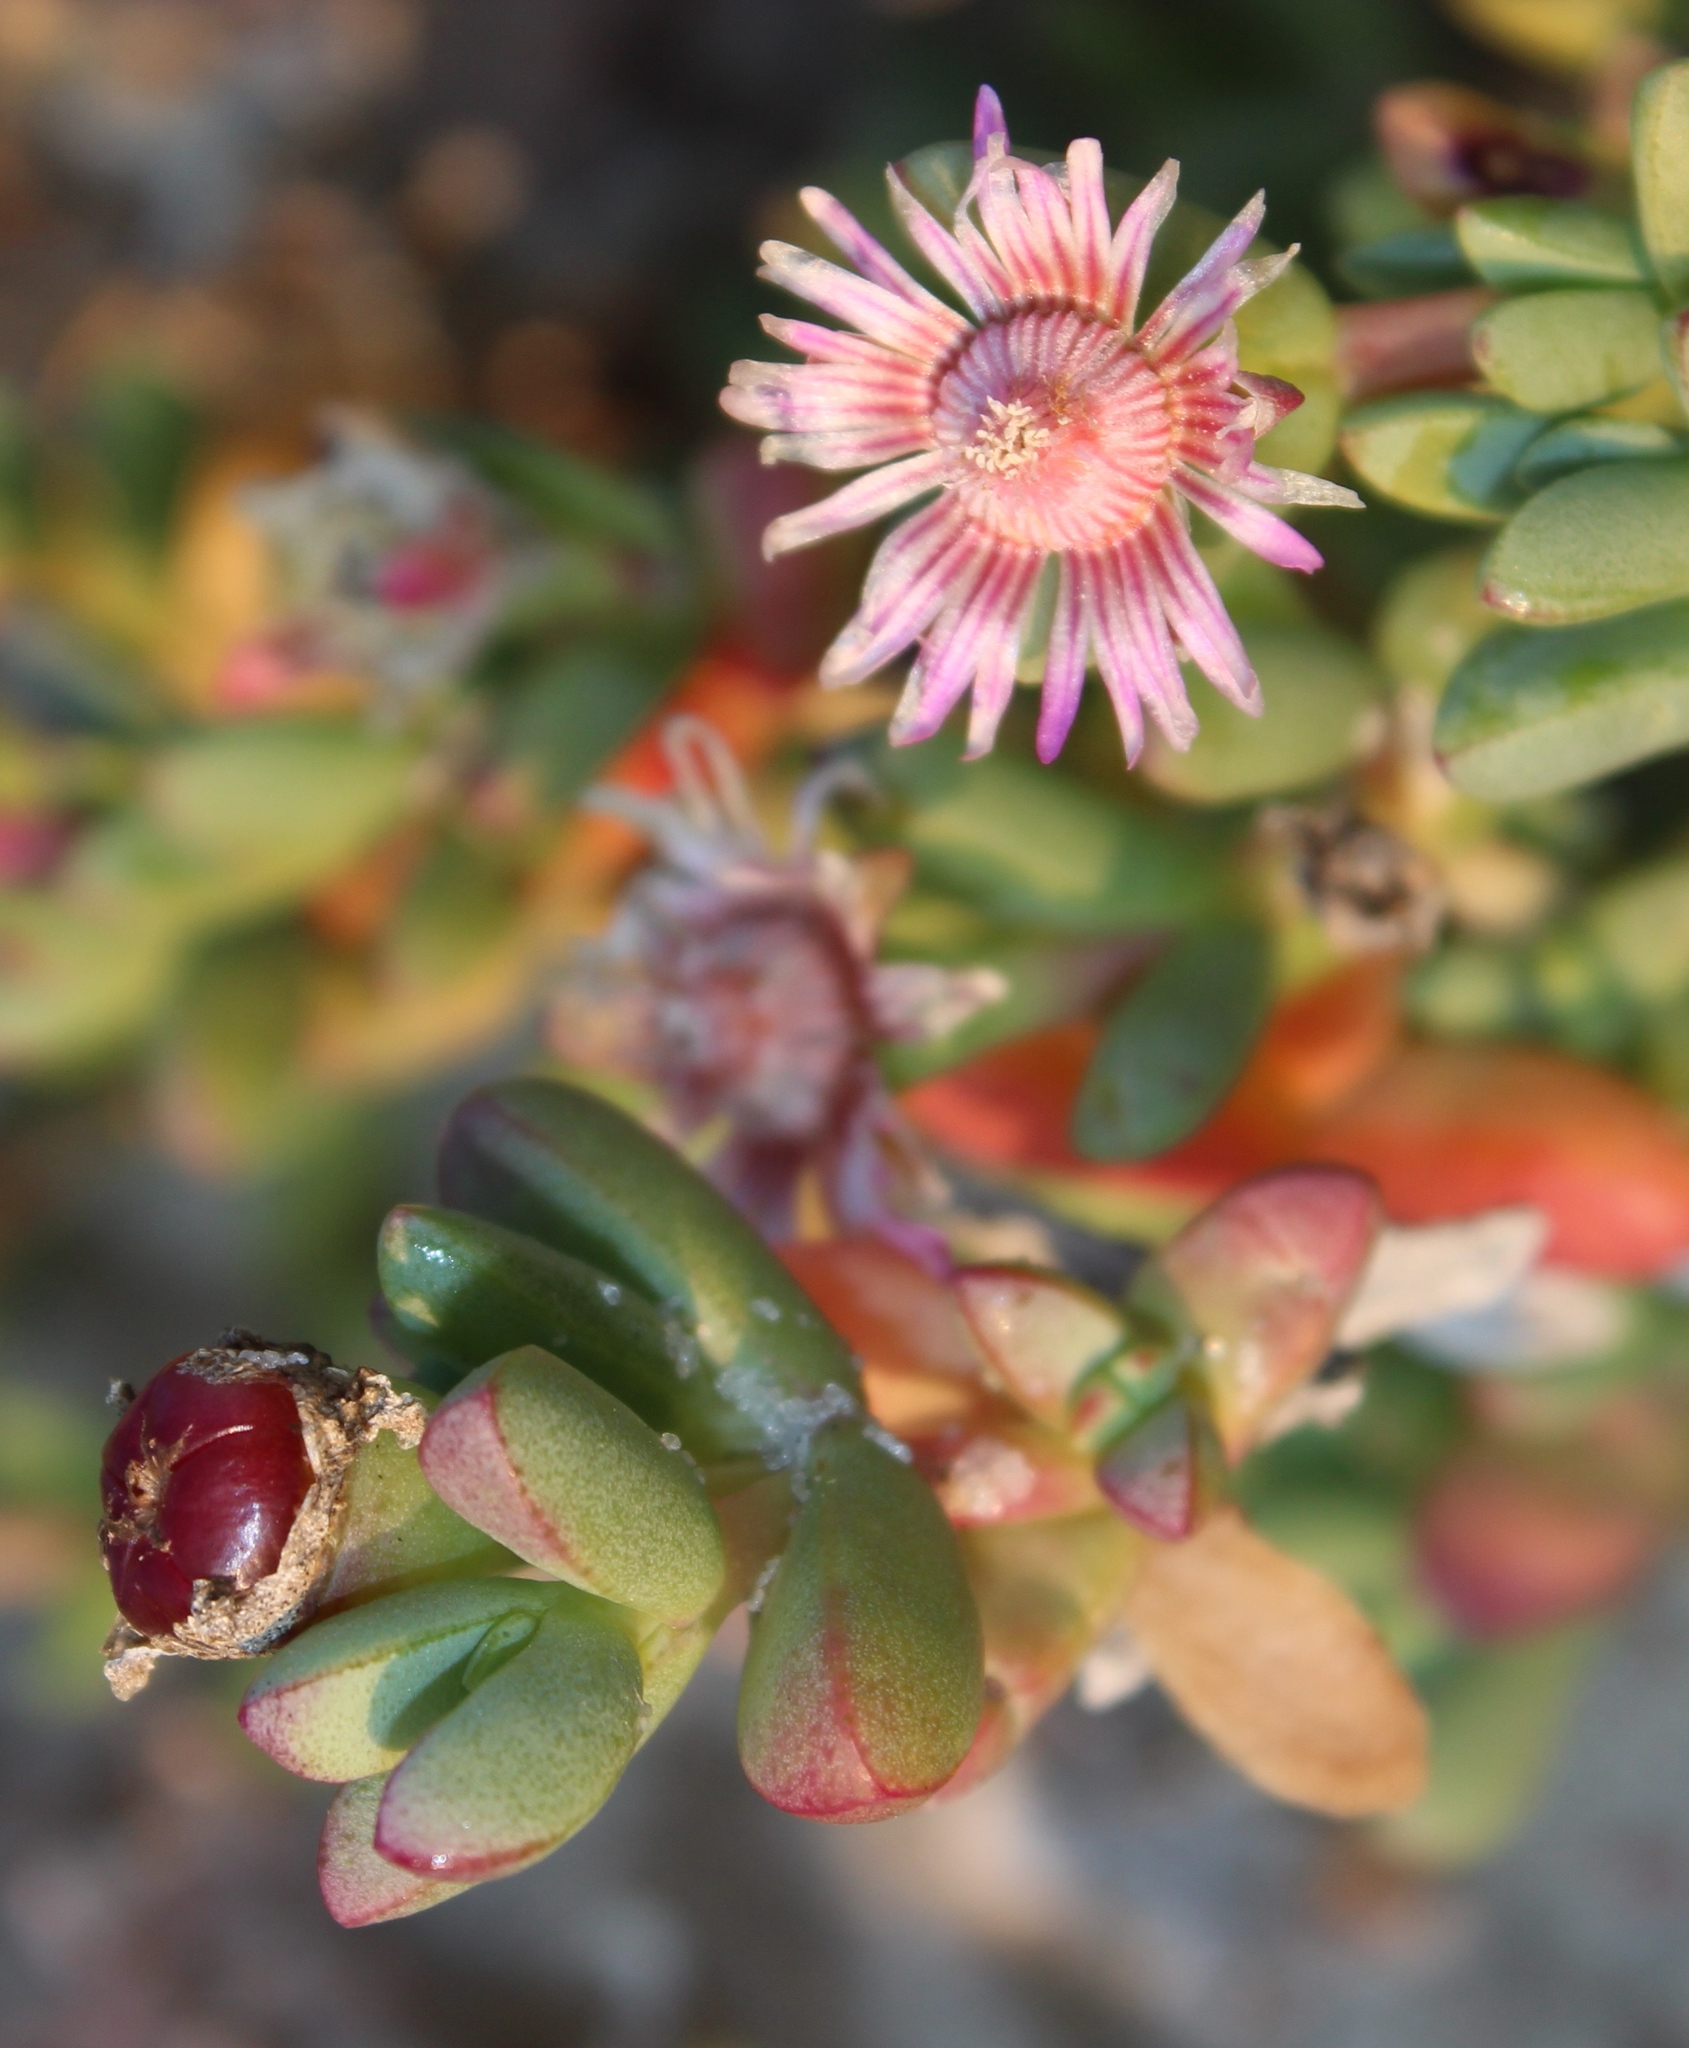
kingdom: Plantae
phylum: Tracheophyta
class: Magnoliopsida
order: Caryophyllales
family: Aizoaceae
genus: Amphibolia
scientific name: Amphibolia succulenta
